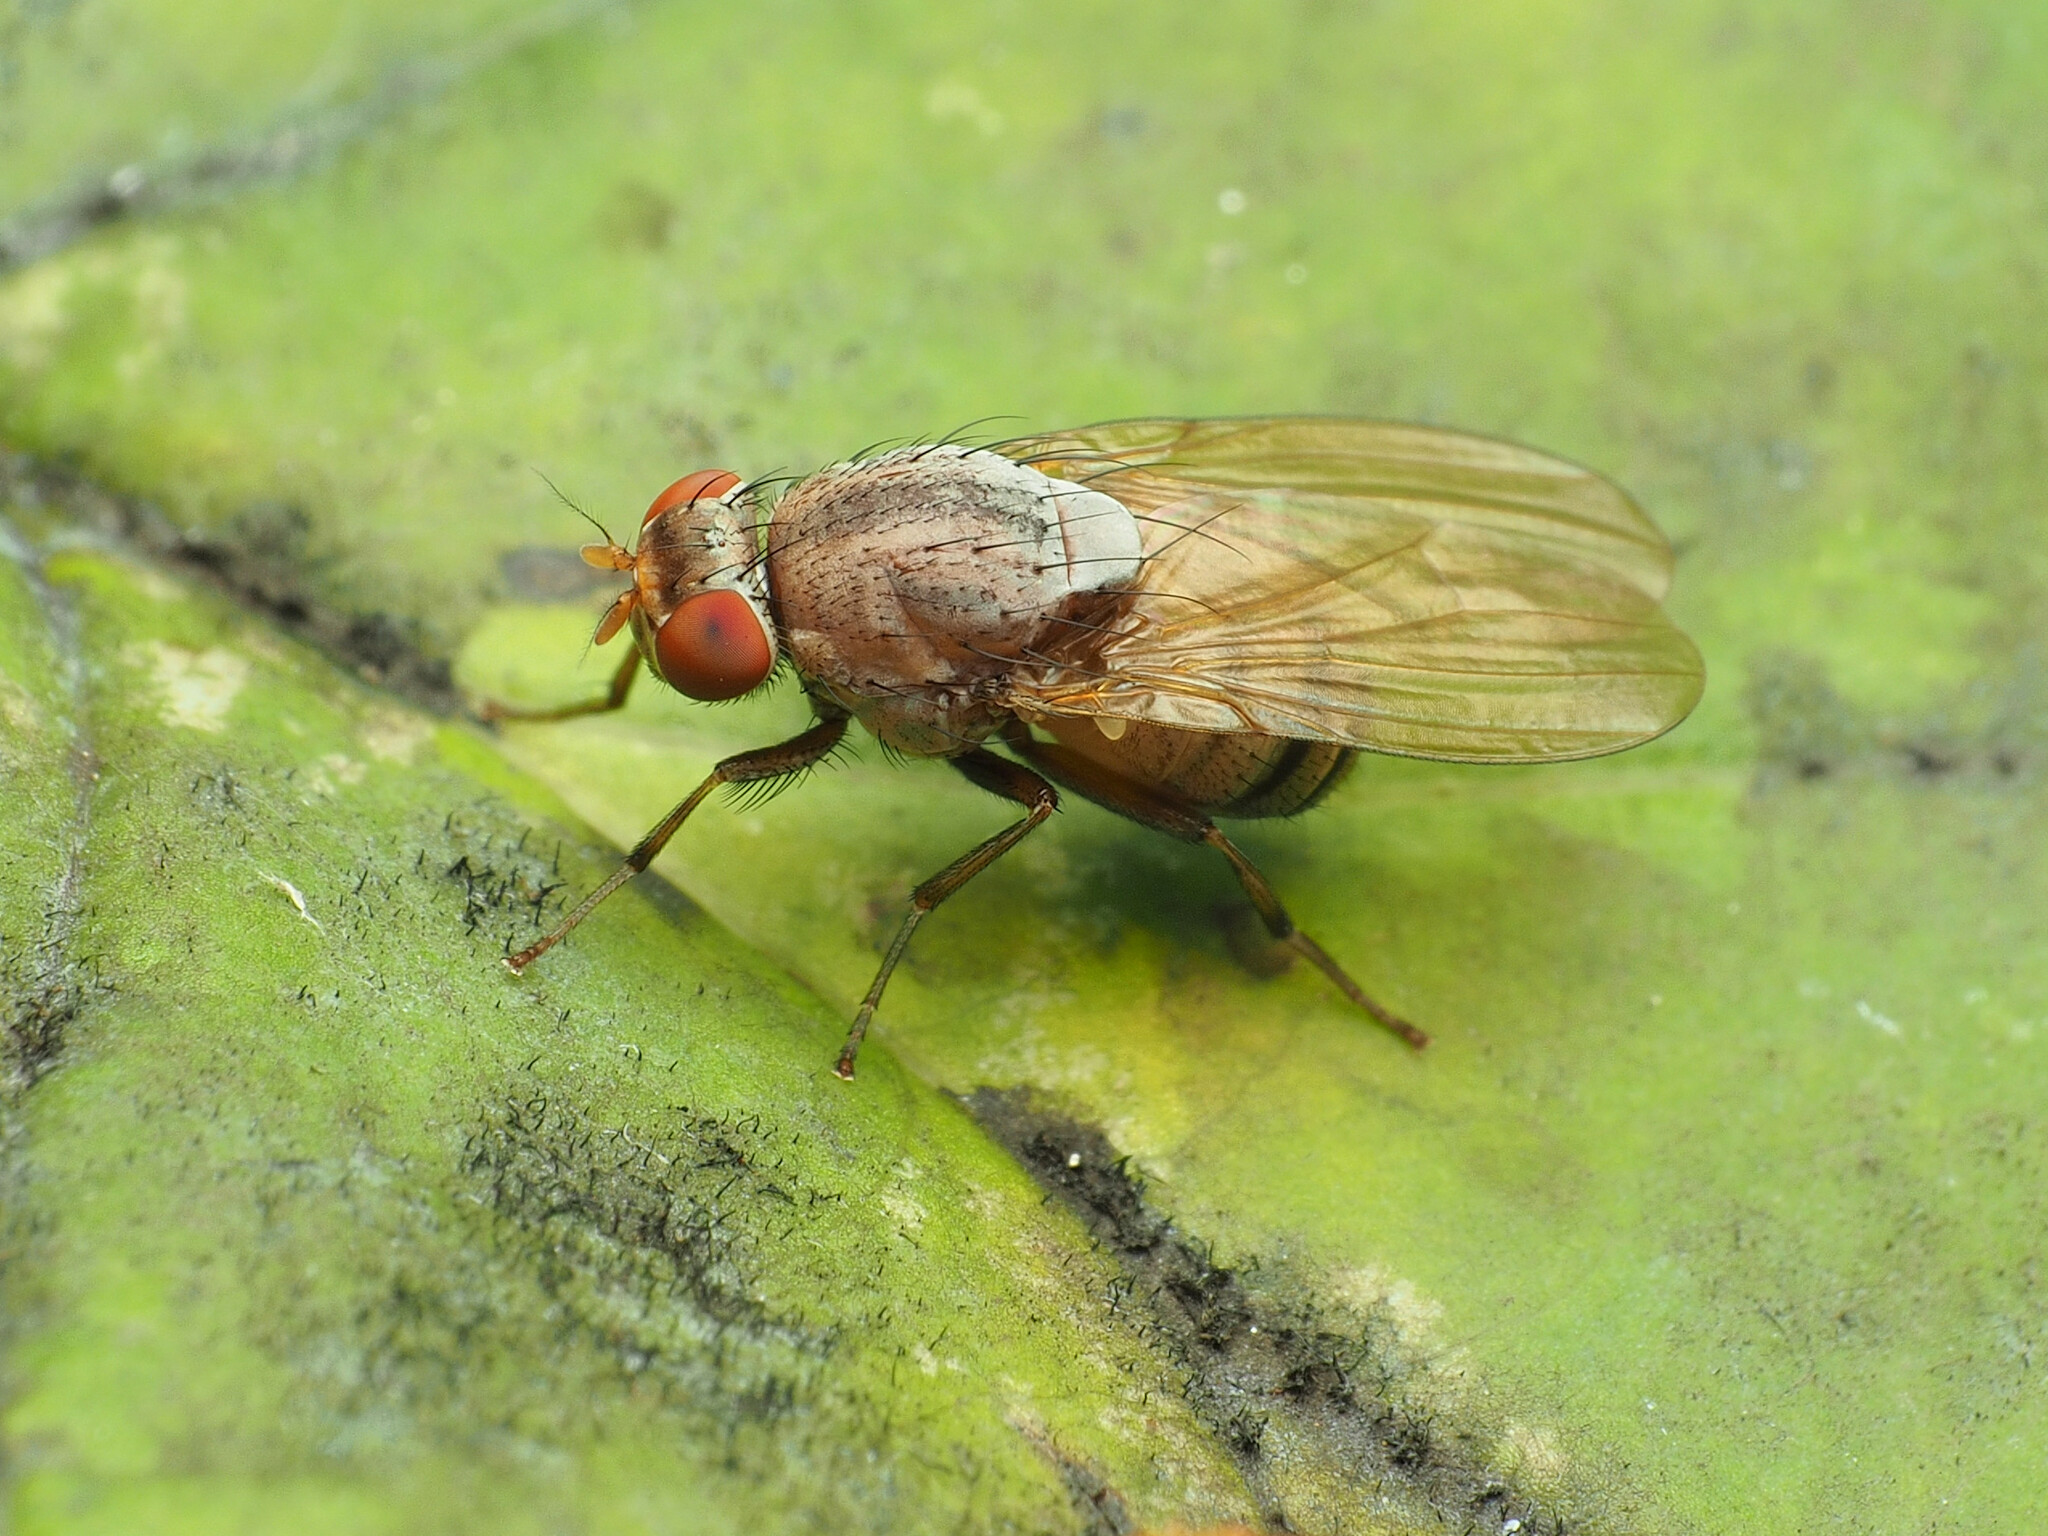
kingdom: Animalia
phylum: Arthropoda
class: Insecta
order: Diptera
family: Lauxaniidae
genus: Minettia
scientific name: Minettia magna
